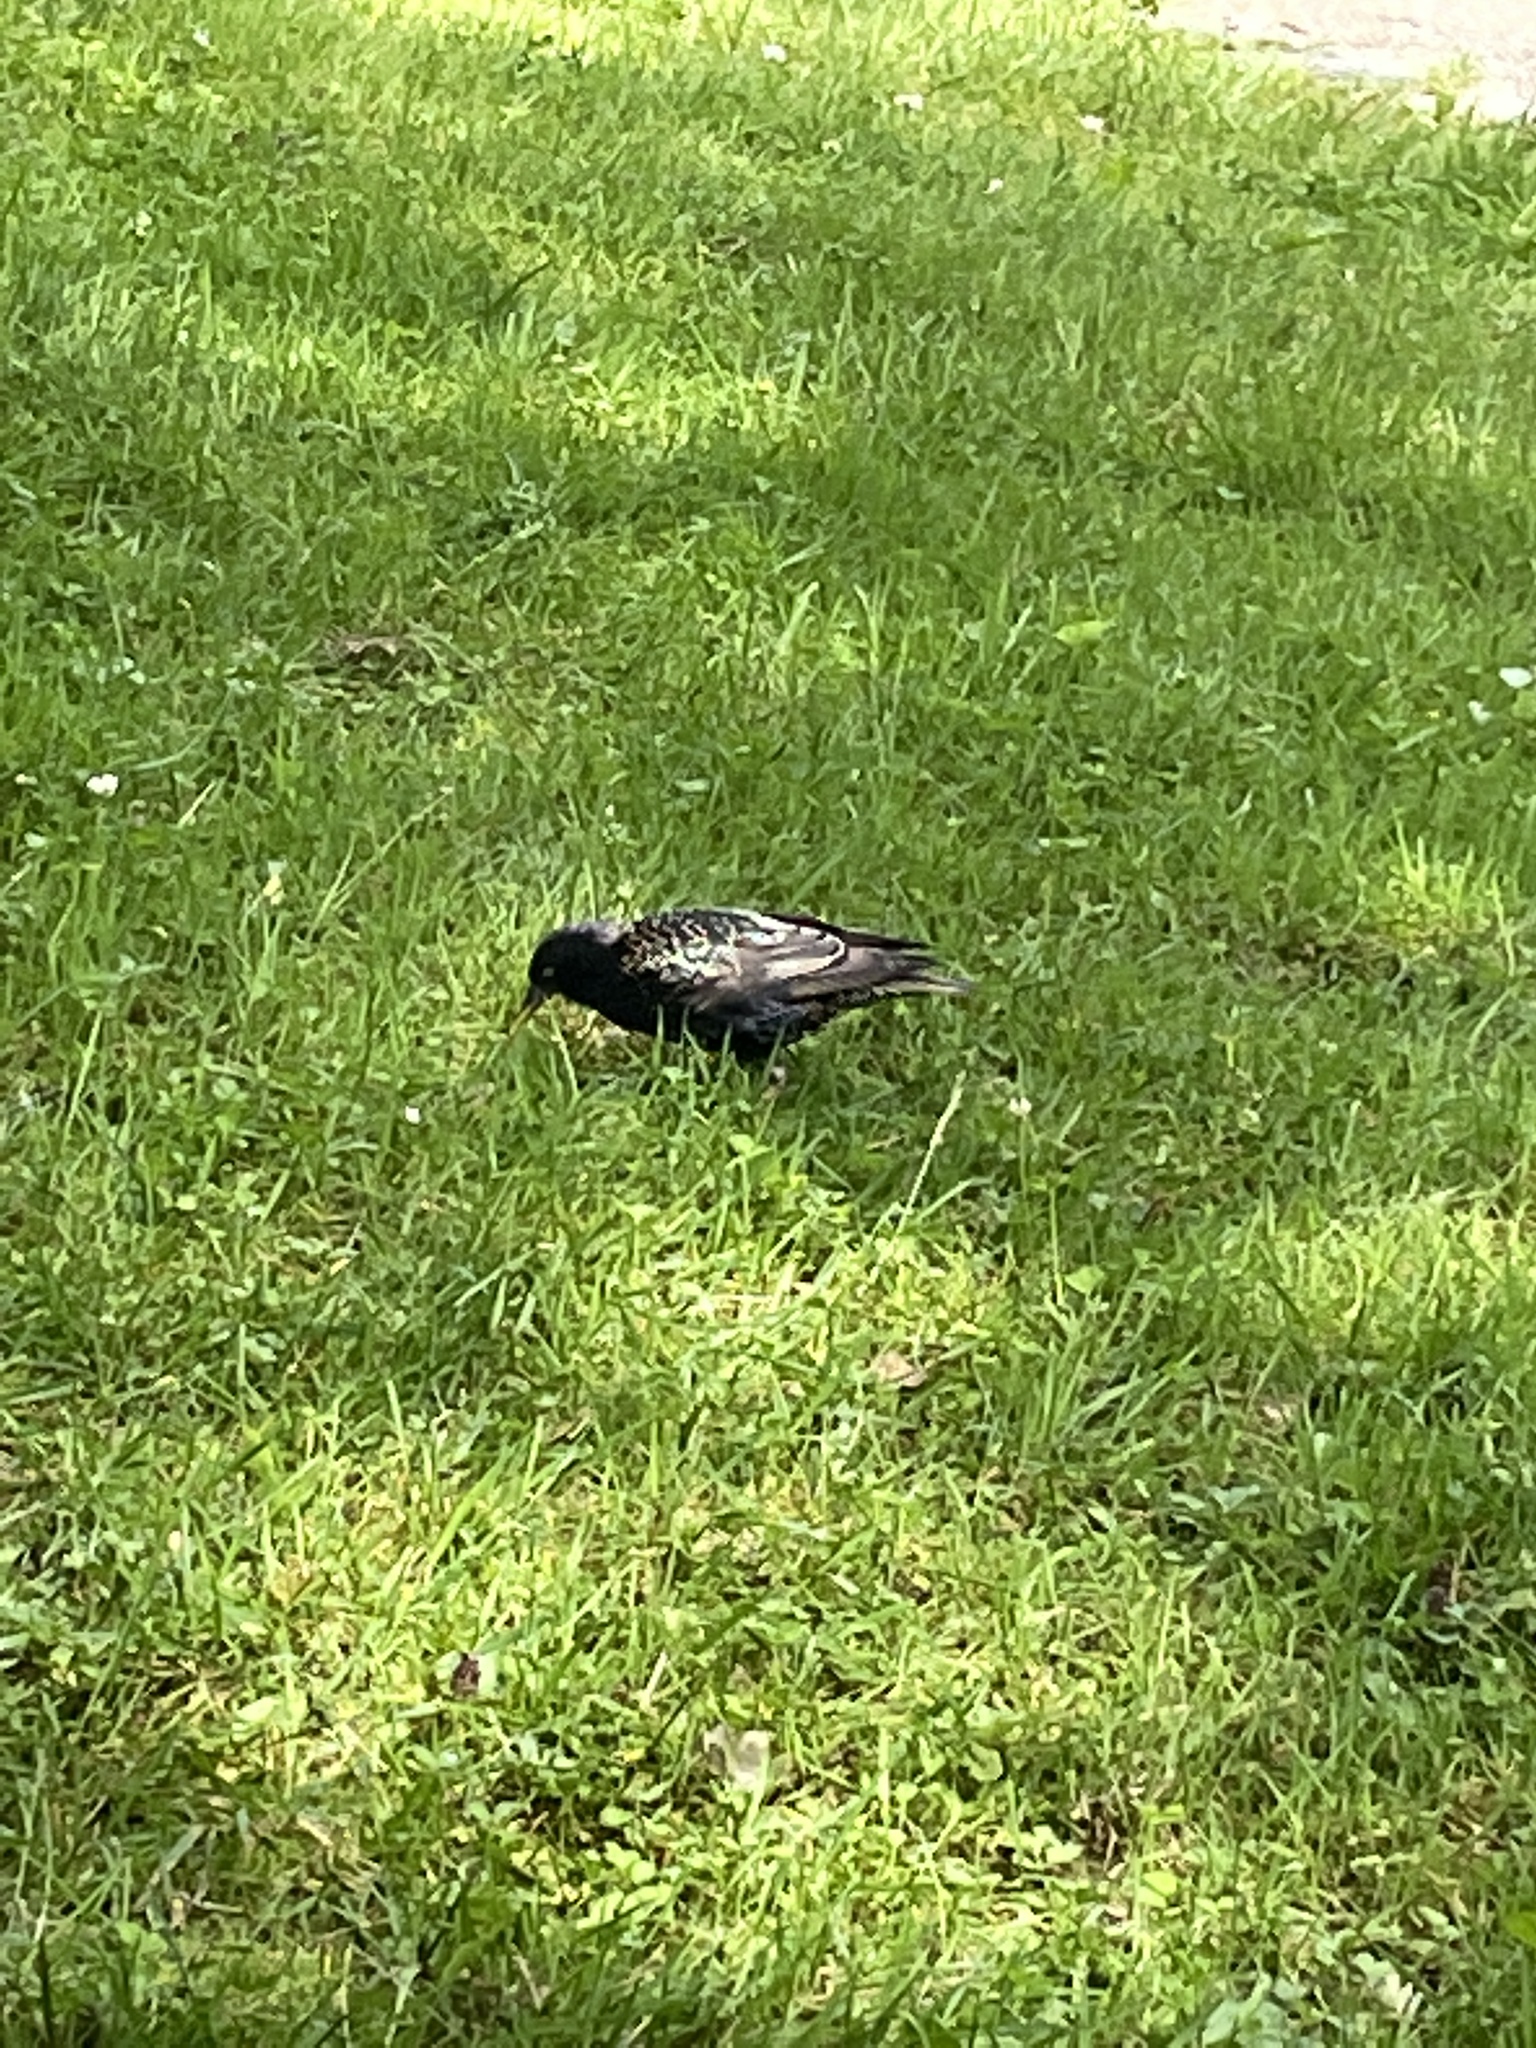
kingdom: Animalia
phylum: Chordata
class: Aves
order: Passeriformes
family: Sturnidae
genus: Sturnus
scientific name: Sturnus vulgaris
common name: Common starling
